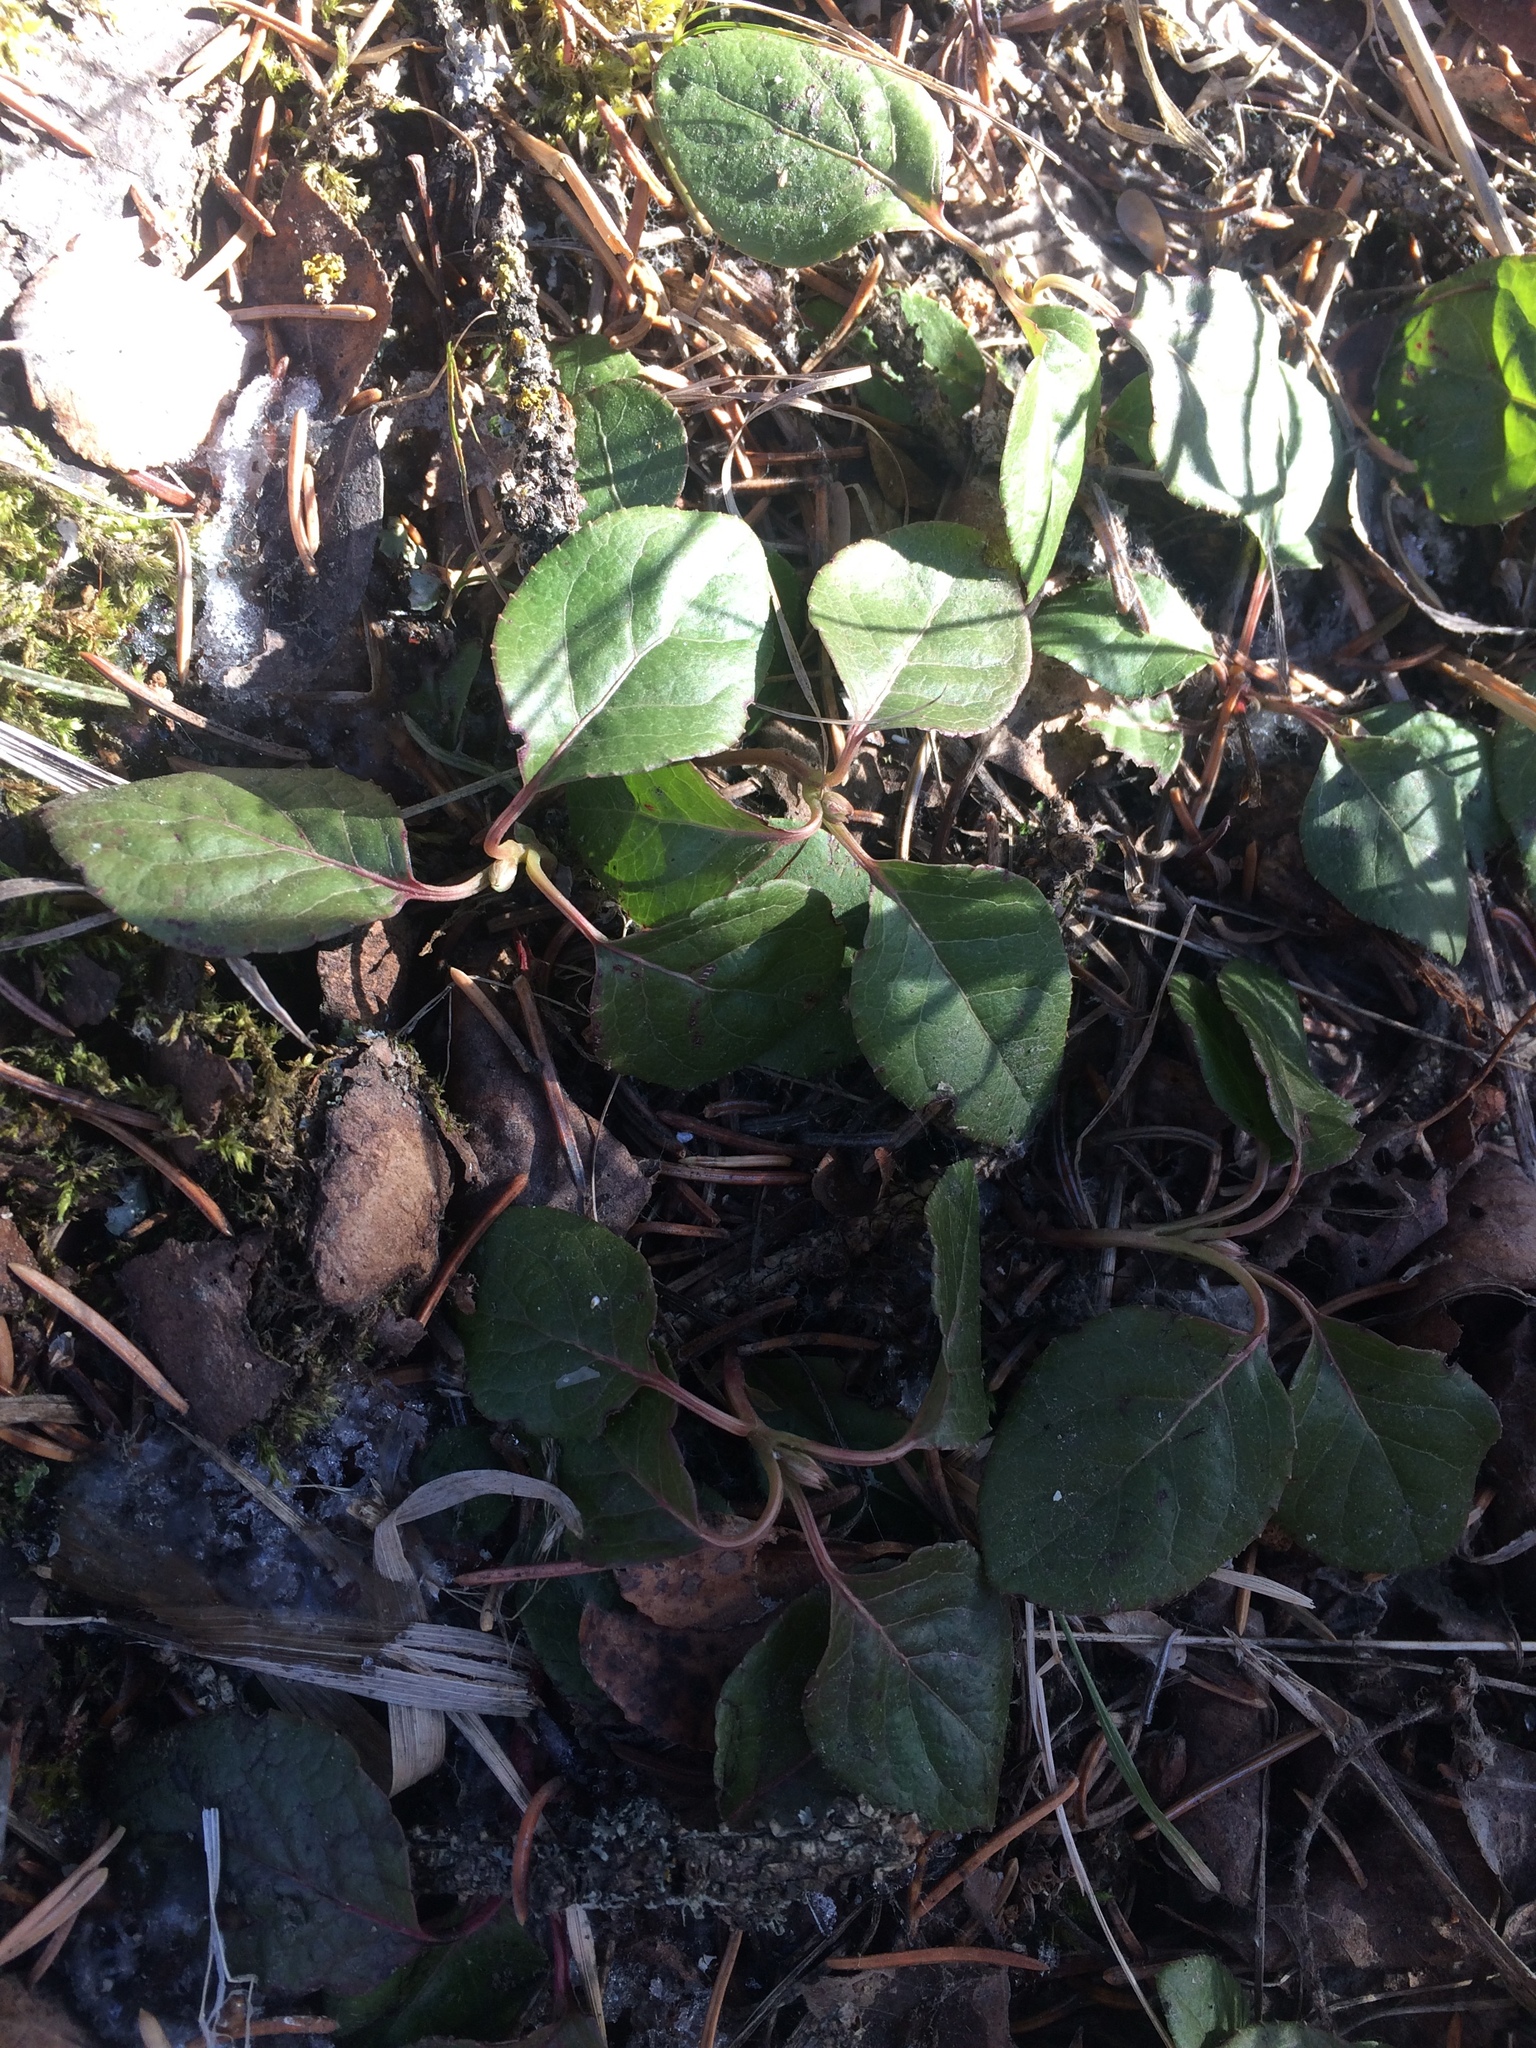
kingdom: Plantae
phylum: Tracheophyta
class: Magnoliopsida
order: Ericales
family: Ericaceae
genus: Orthilia
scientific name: Orthilia secunda
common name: One-sided orthilia
